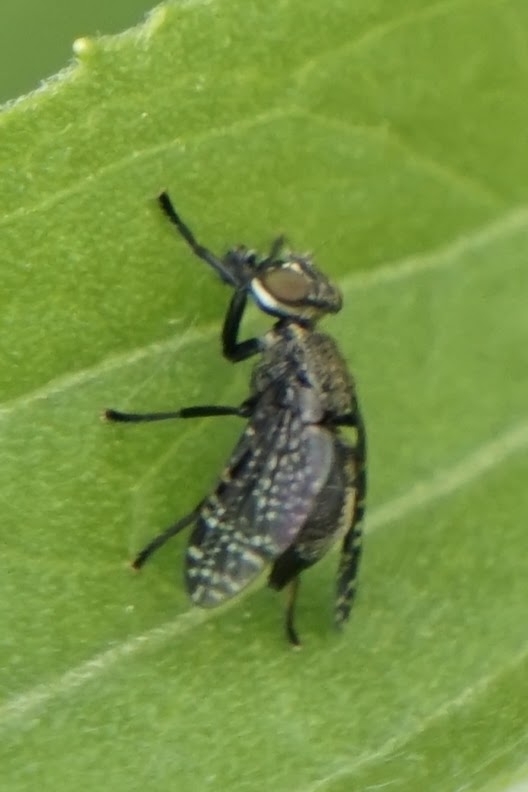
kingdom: Animalia
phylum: Arthropoda
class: Insecta
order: Diptera
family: Platystomatidae
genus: Platystoma
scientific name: Platystoma seminationis
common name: Fly
